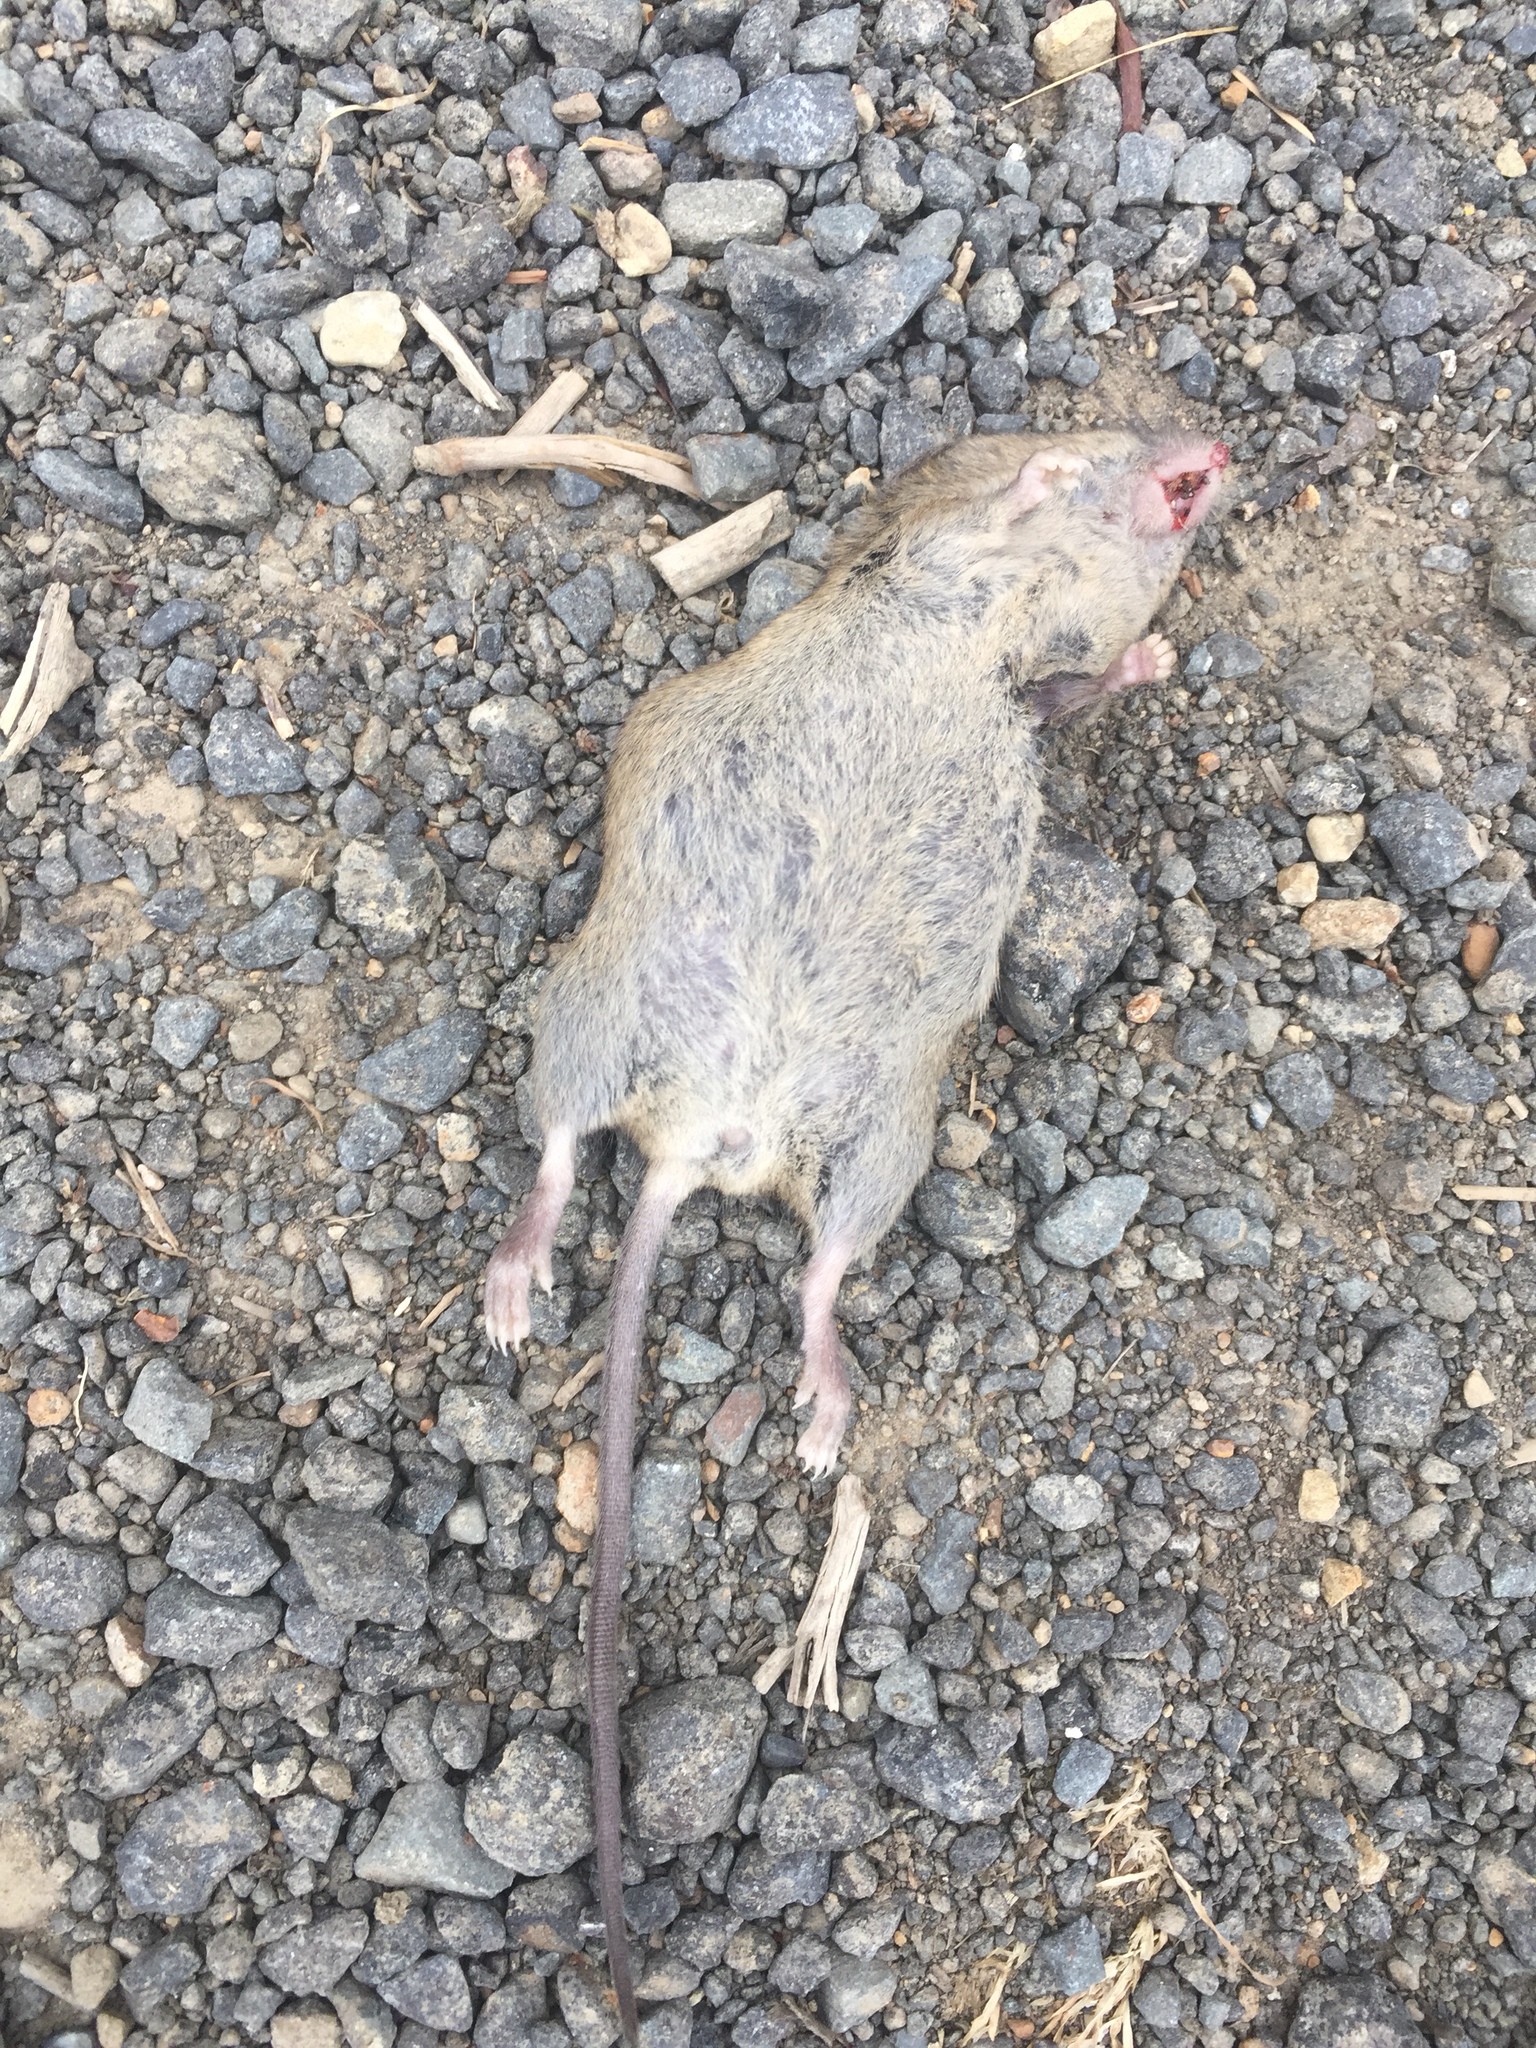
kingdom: Animalia
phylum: Chordata
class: Mammalia
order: Rodentia
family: Muridae
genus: Mus
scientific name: Mus musculus
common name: House mouse
